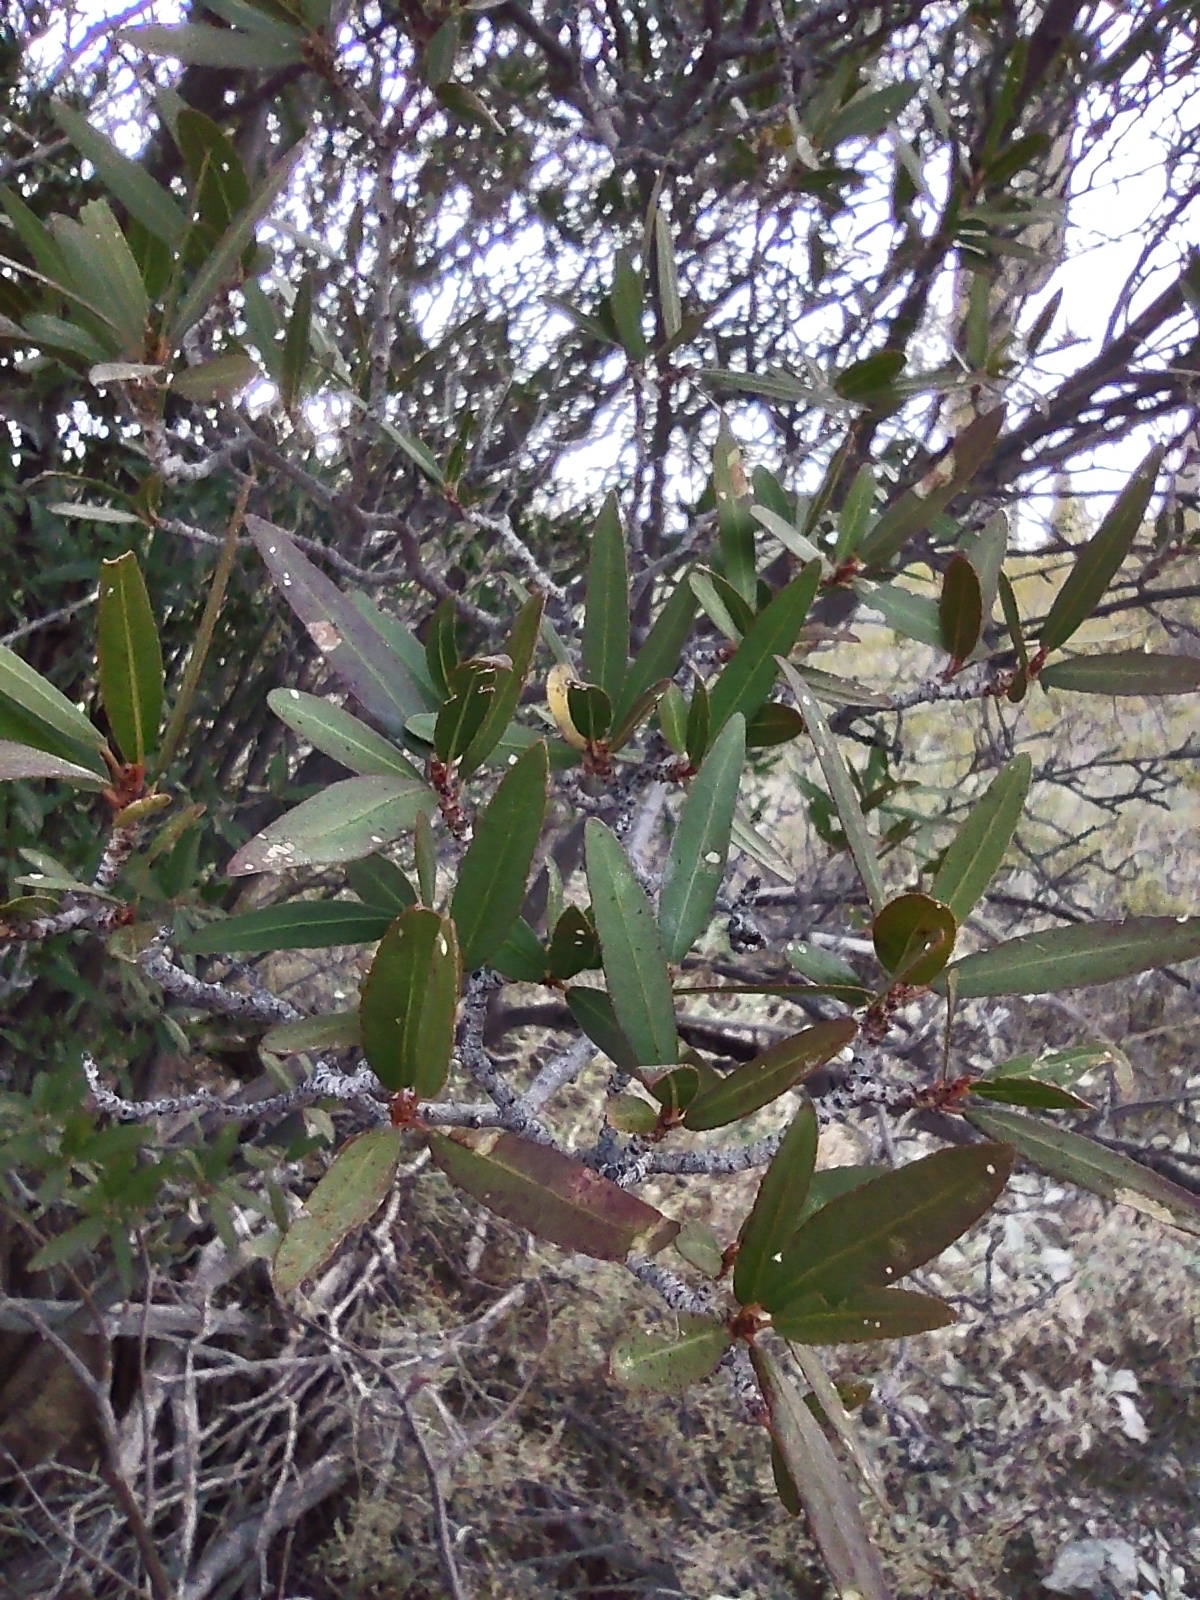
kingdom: Plantae
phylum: Tracheophyta
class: Magnoliopsida
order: Malpighiales
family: Euphorbiaceae
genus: Pleradenophora
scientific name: Pleradenophora bilocularis
